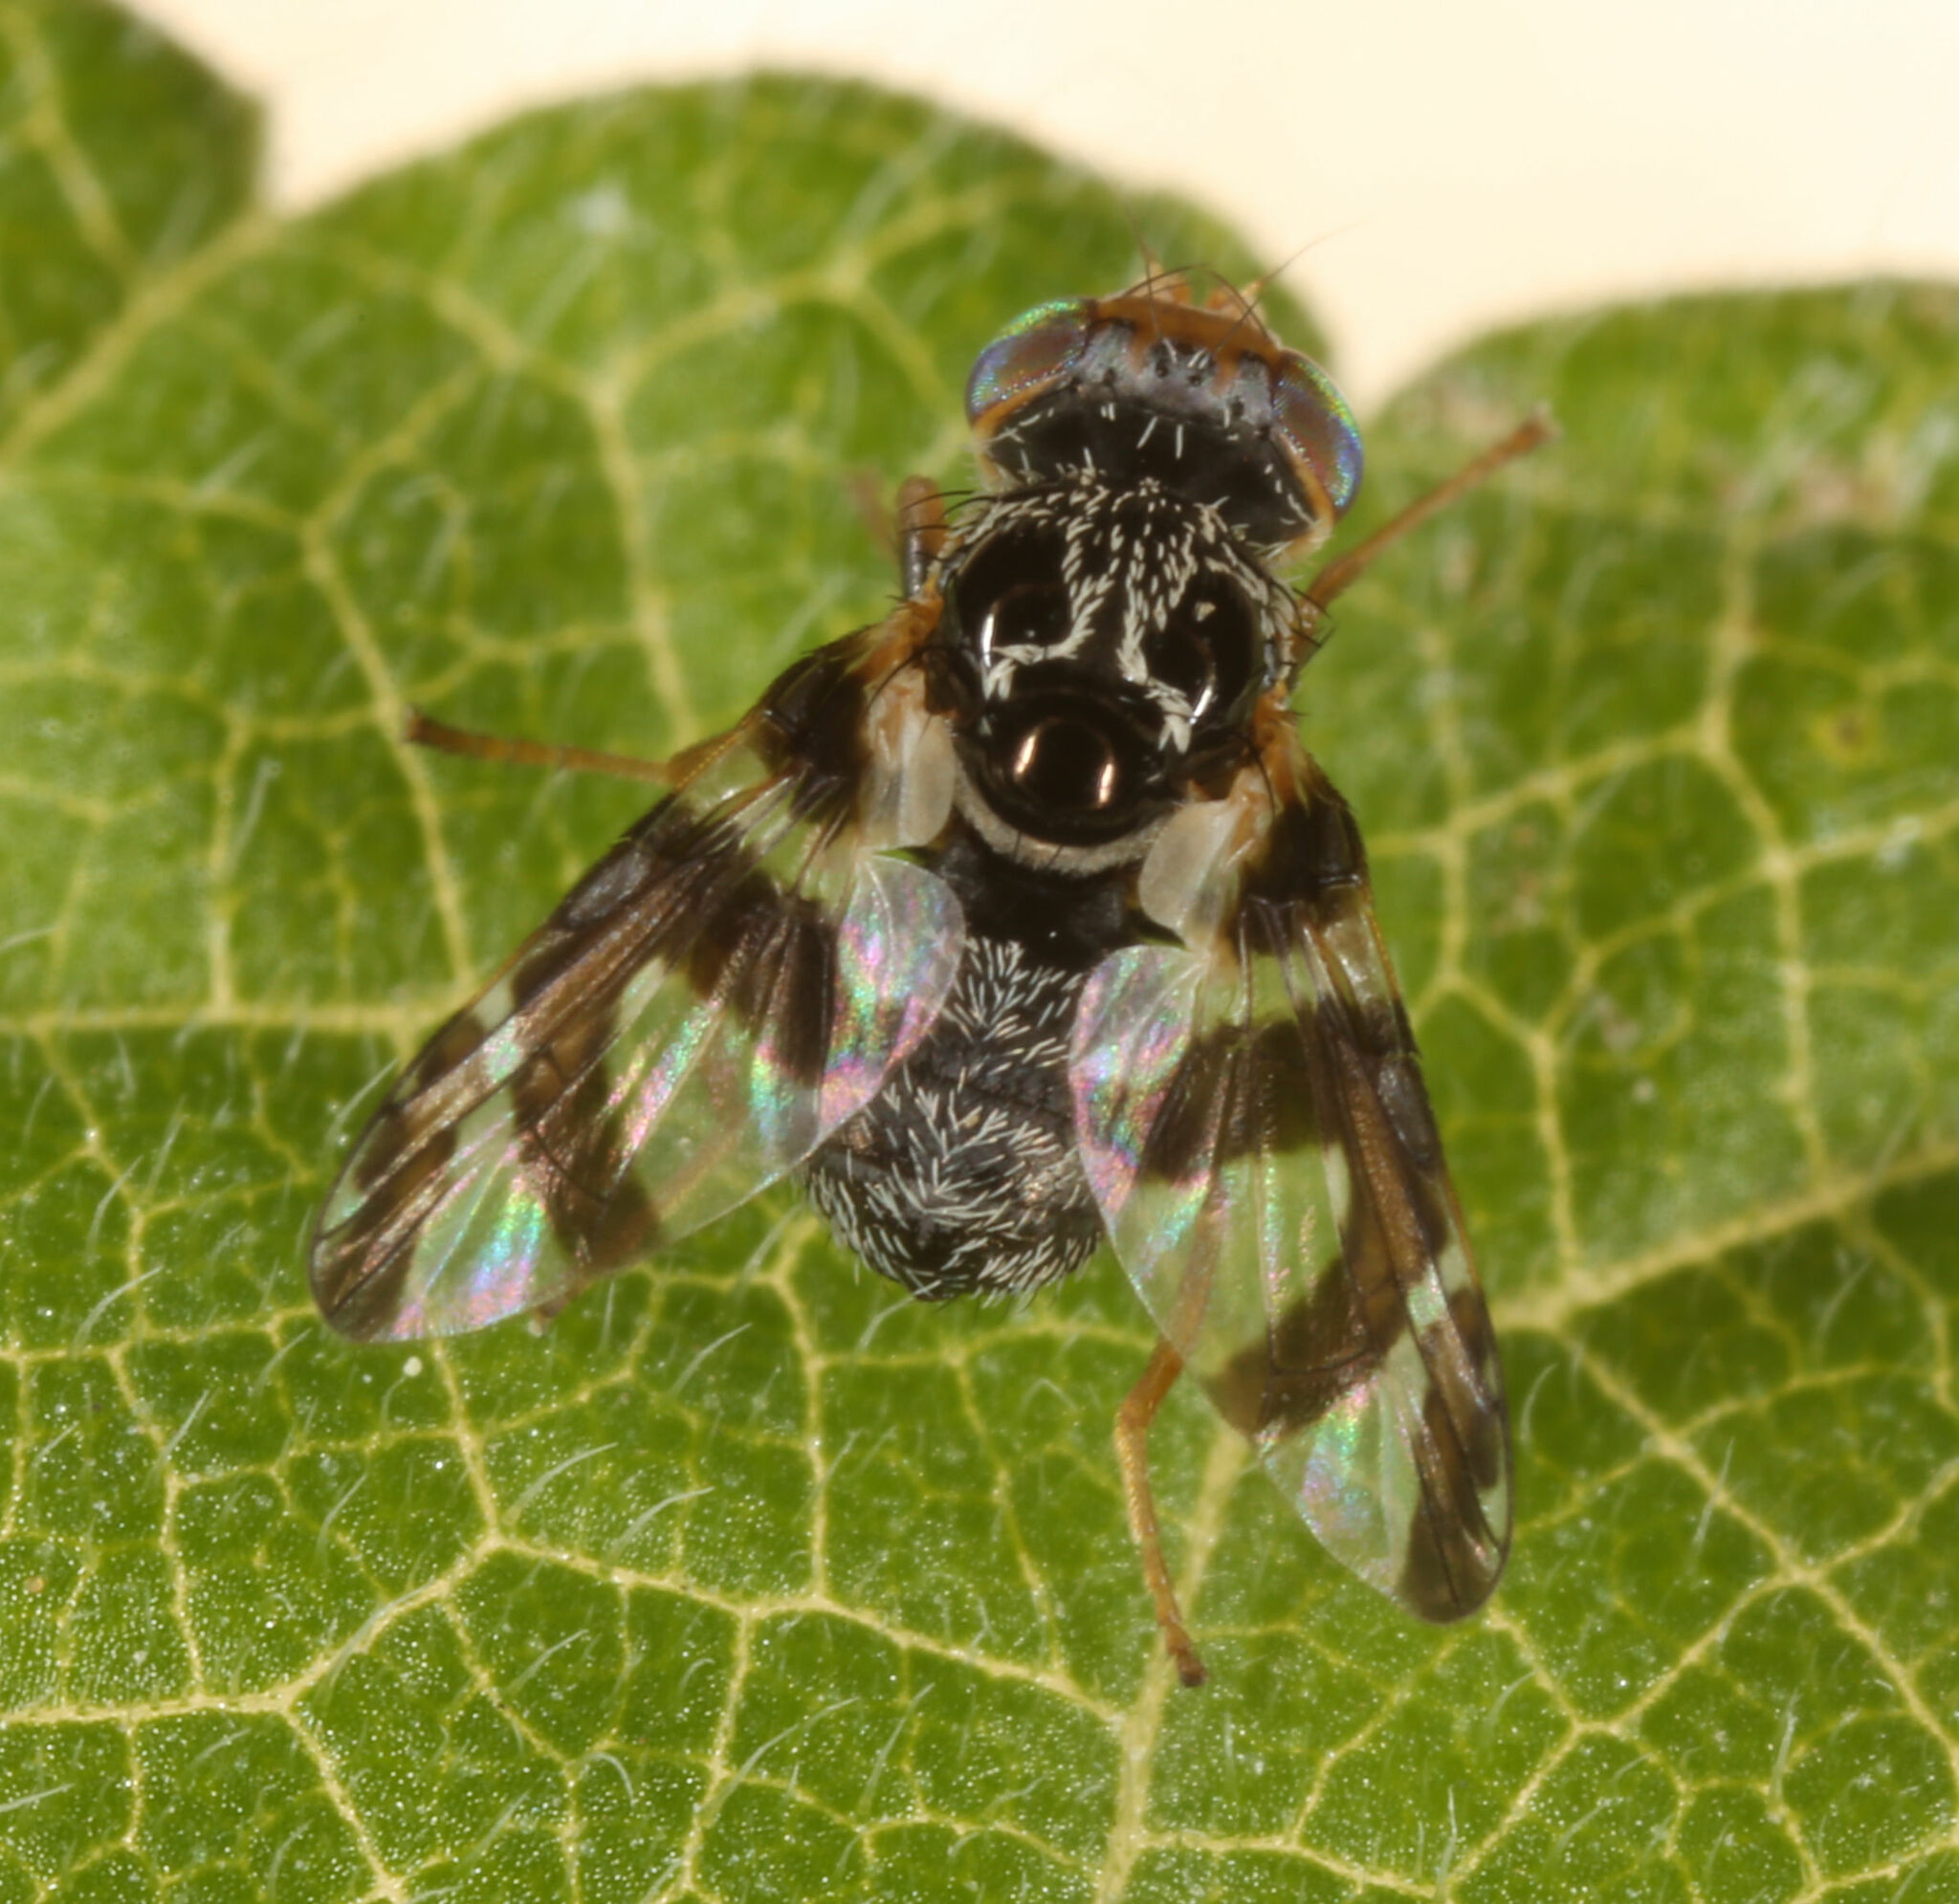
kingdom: Animalia
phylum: Arthropoda
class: Insecta
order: Diptera
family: Tephritidae
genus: Procecidochares
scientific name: Procecidochares minuta
